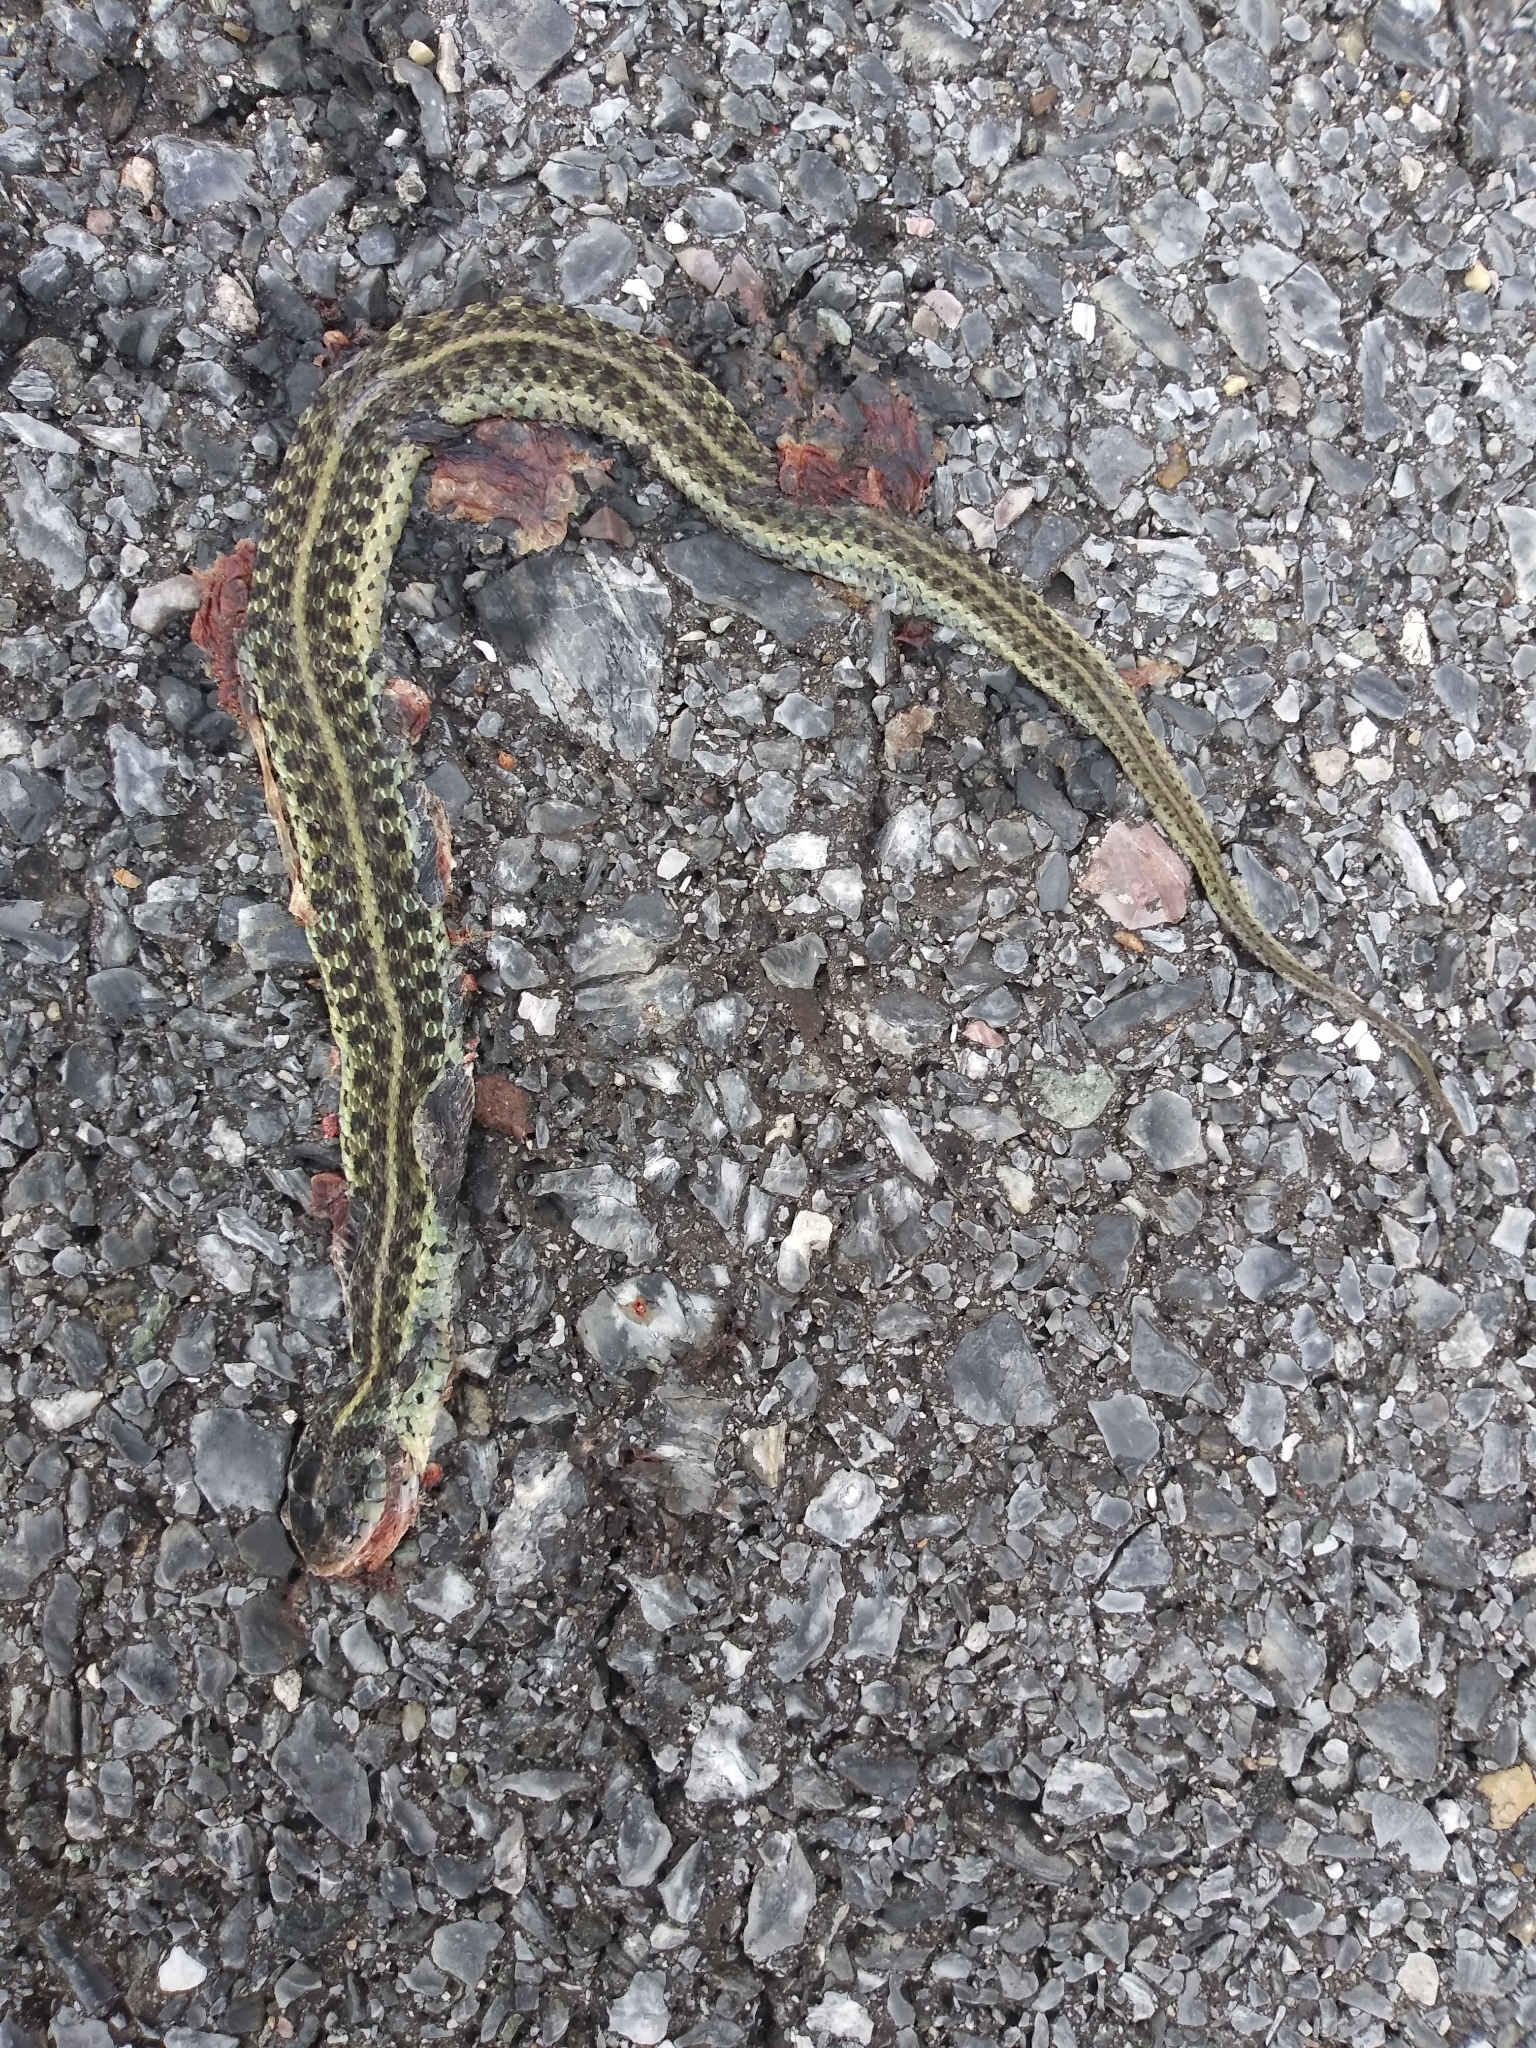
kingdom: Animalia
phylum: Chordata
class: Squamata
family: Colubridae
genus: Thamnophis
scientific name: Thamnophis sirtalis
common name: Common garter snake
